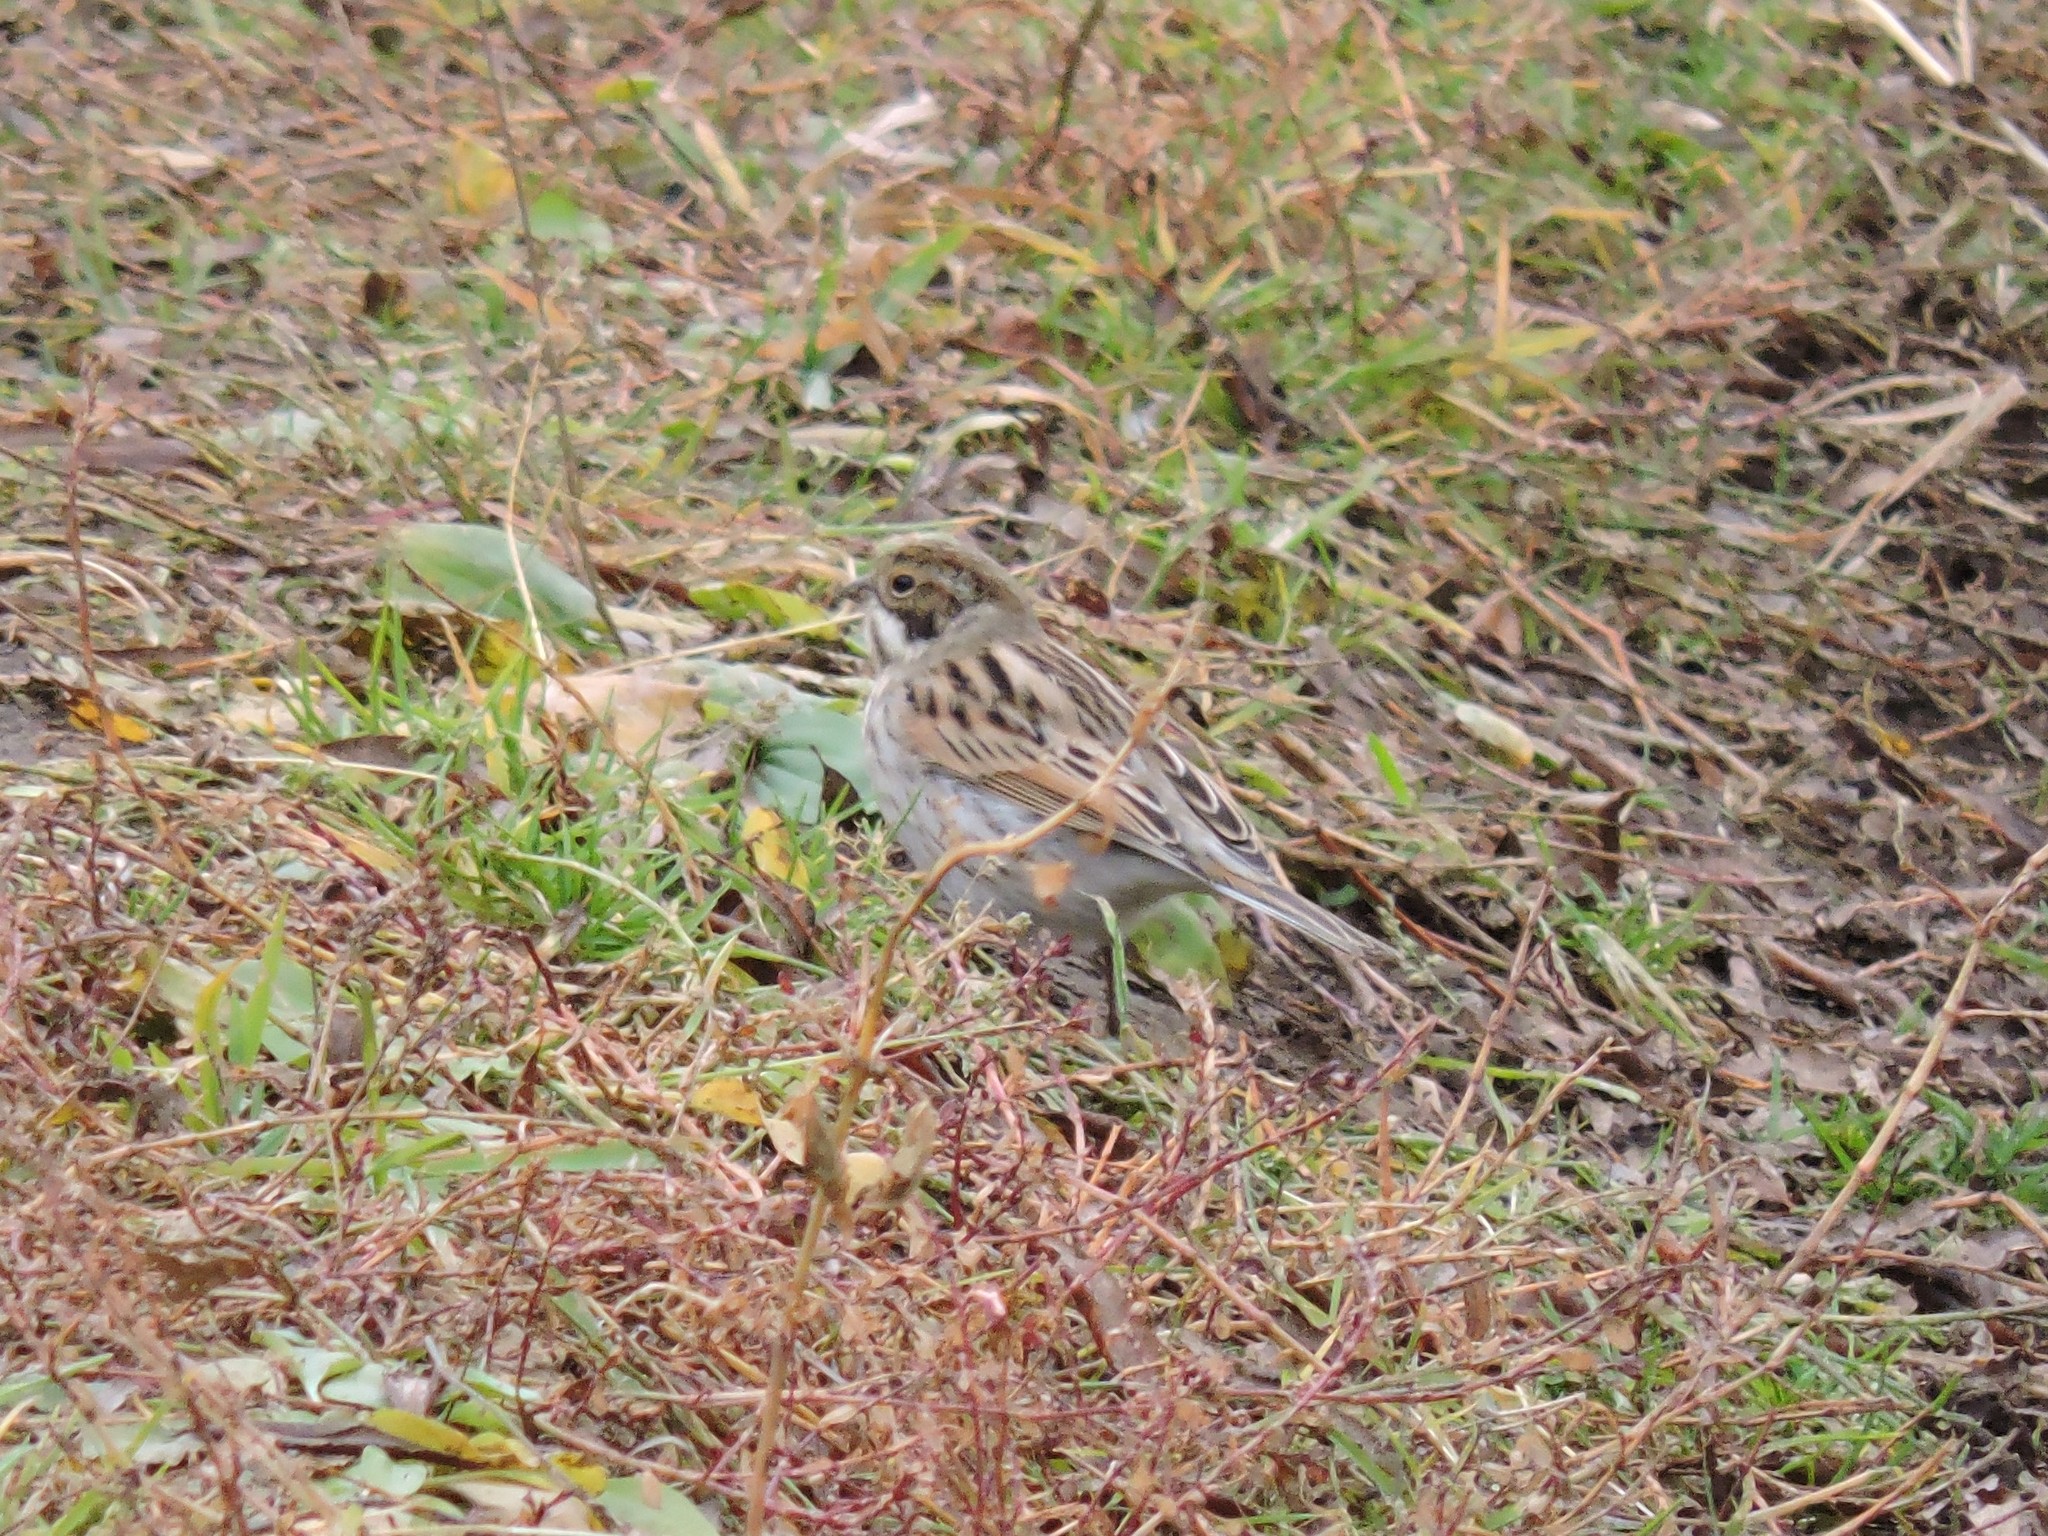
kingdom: Animalia
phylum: Chordata
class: Aves
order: Passeriformes
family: Emberizidae
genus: Emberiza
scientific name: Emberiza schoeniclus
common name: Reed bunting
